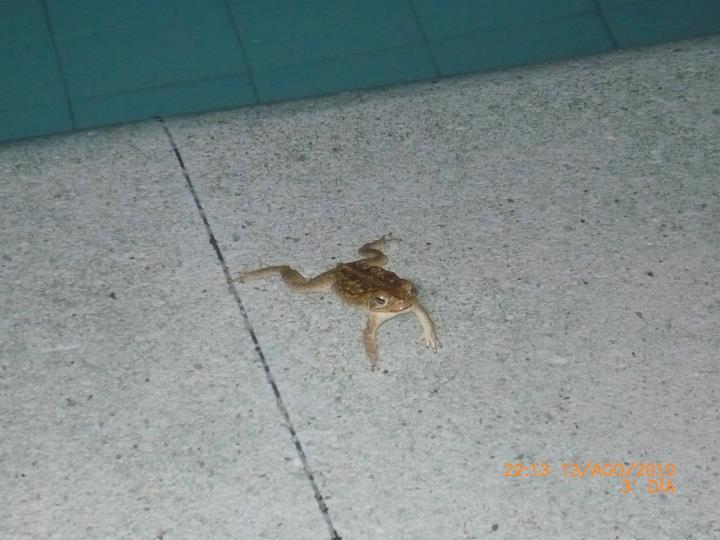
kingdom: Animalia
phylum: Chordata
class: Amphibia
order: Anura
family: Bufonidae
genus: Rhinella
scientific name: Rhinella horribilis
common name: Mesoamerican cane toad
